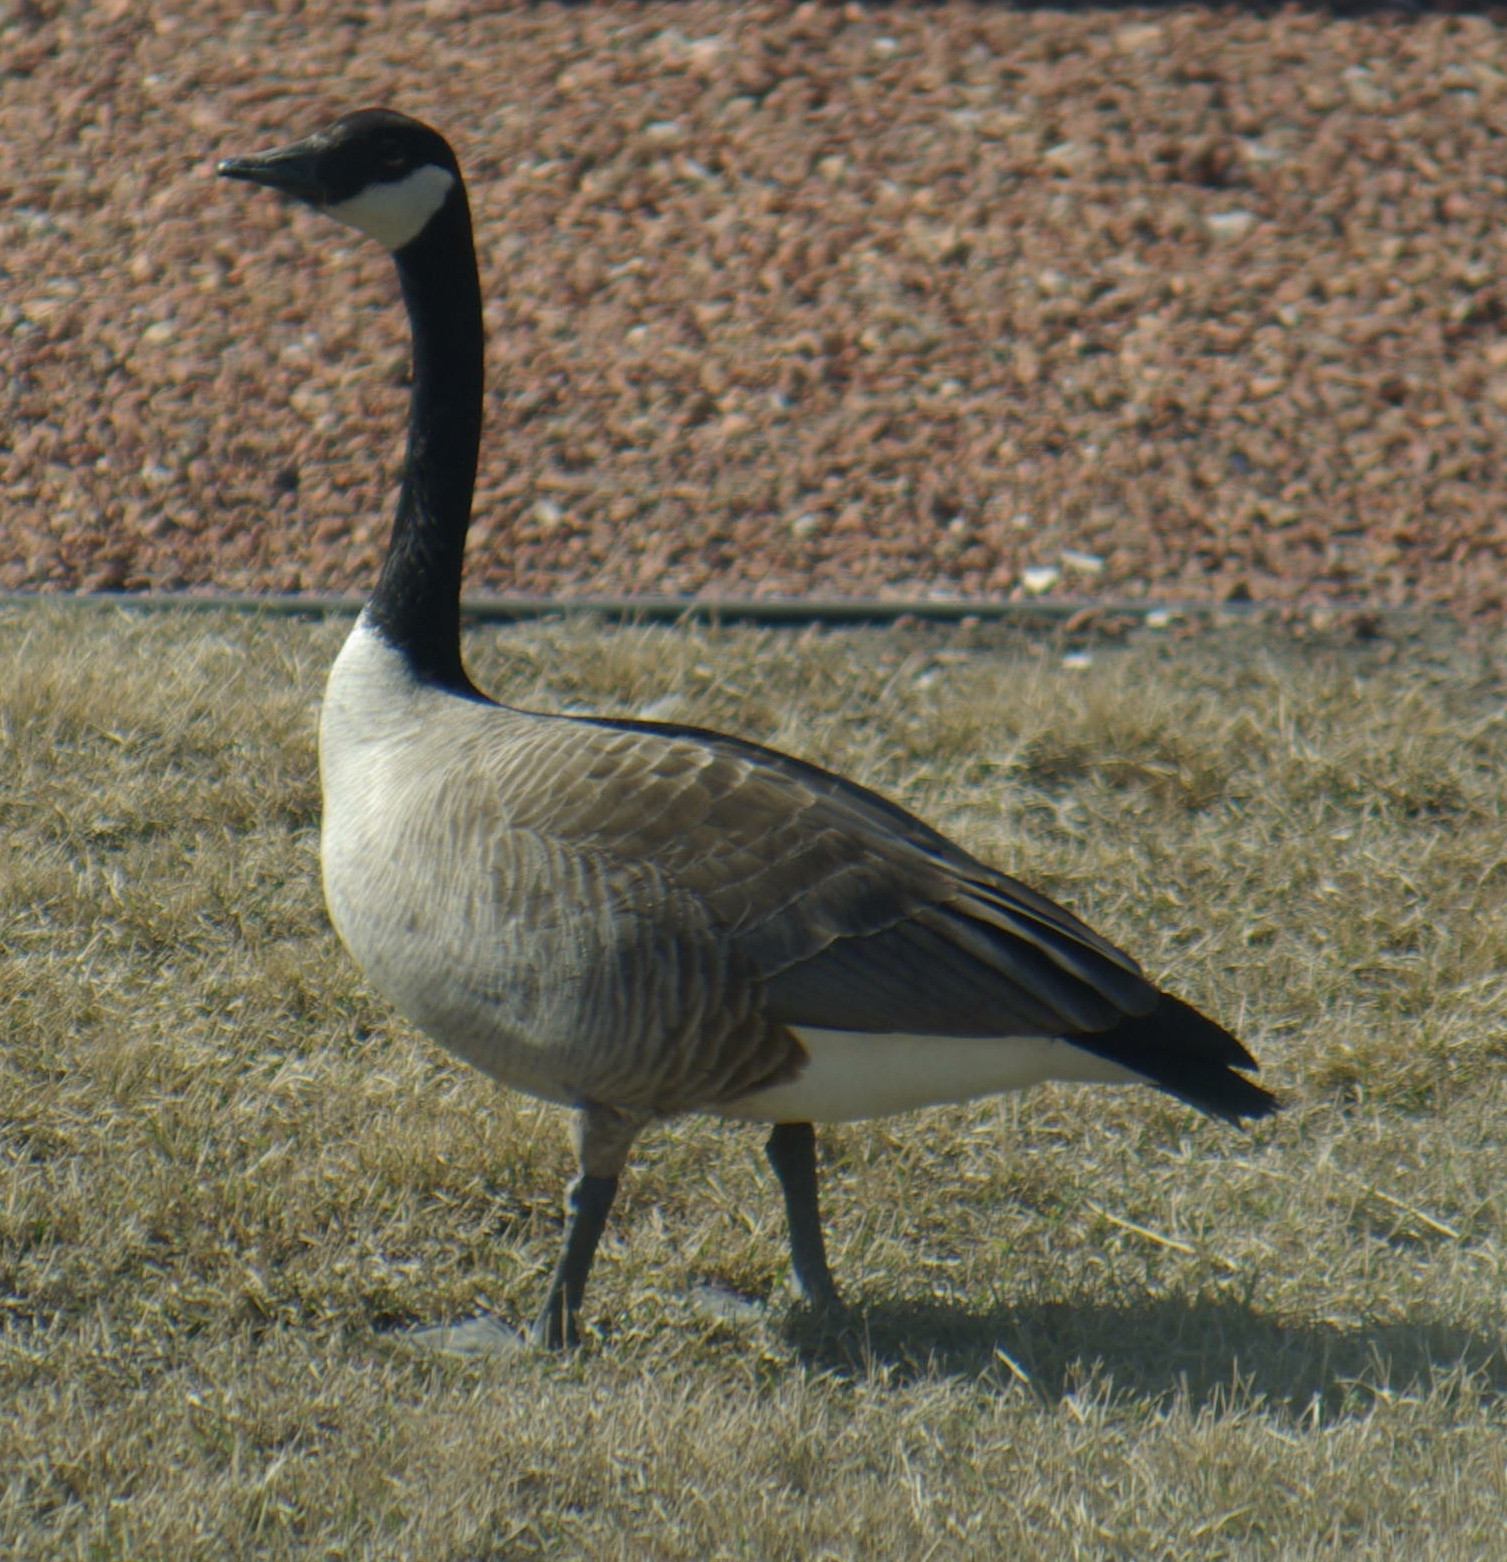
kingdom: Animalia
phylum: Chordata
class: Aves
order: Anseriformes
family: Anatidae
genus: Branta
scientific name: Branta canadensis
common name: Canada goose
